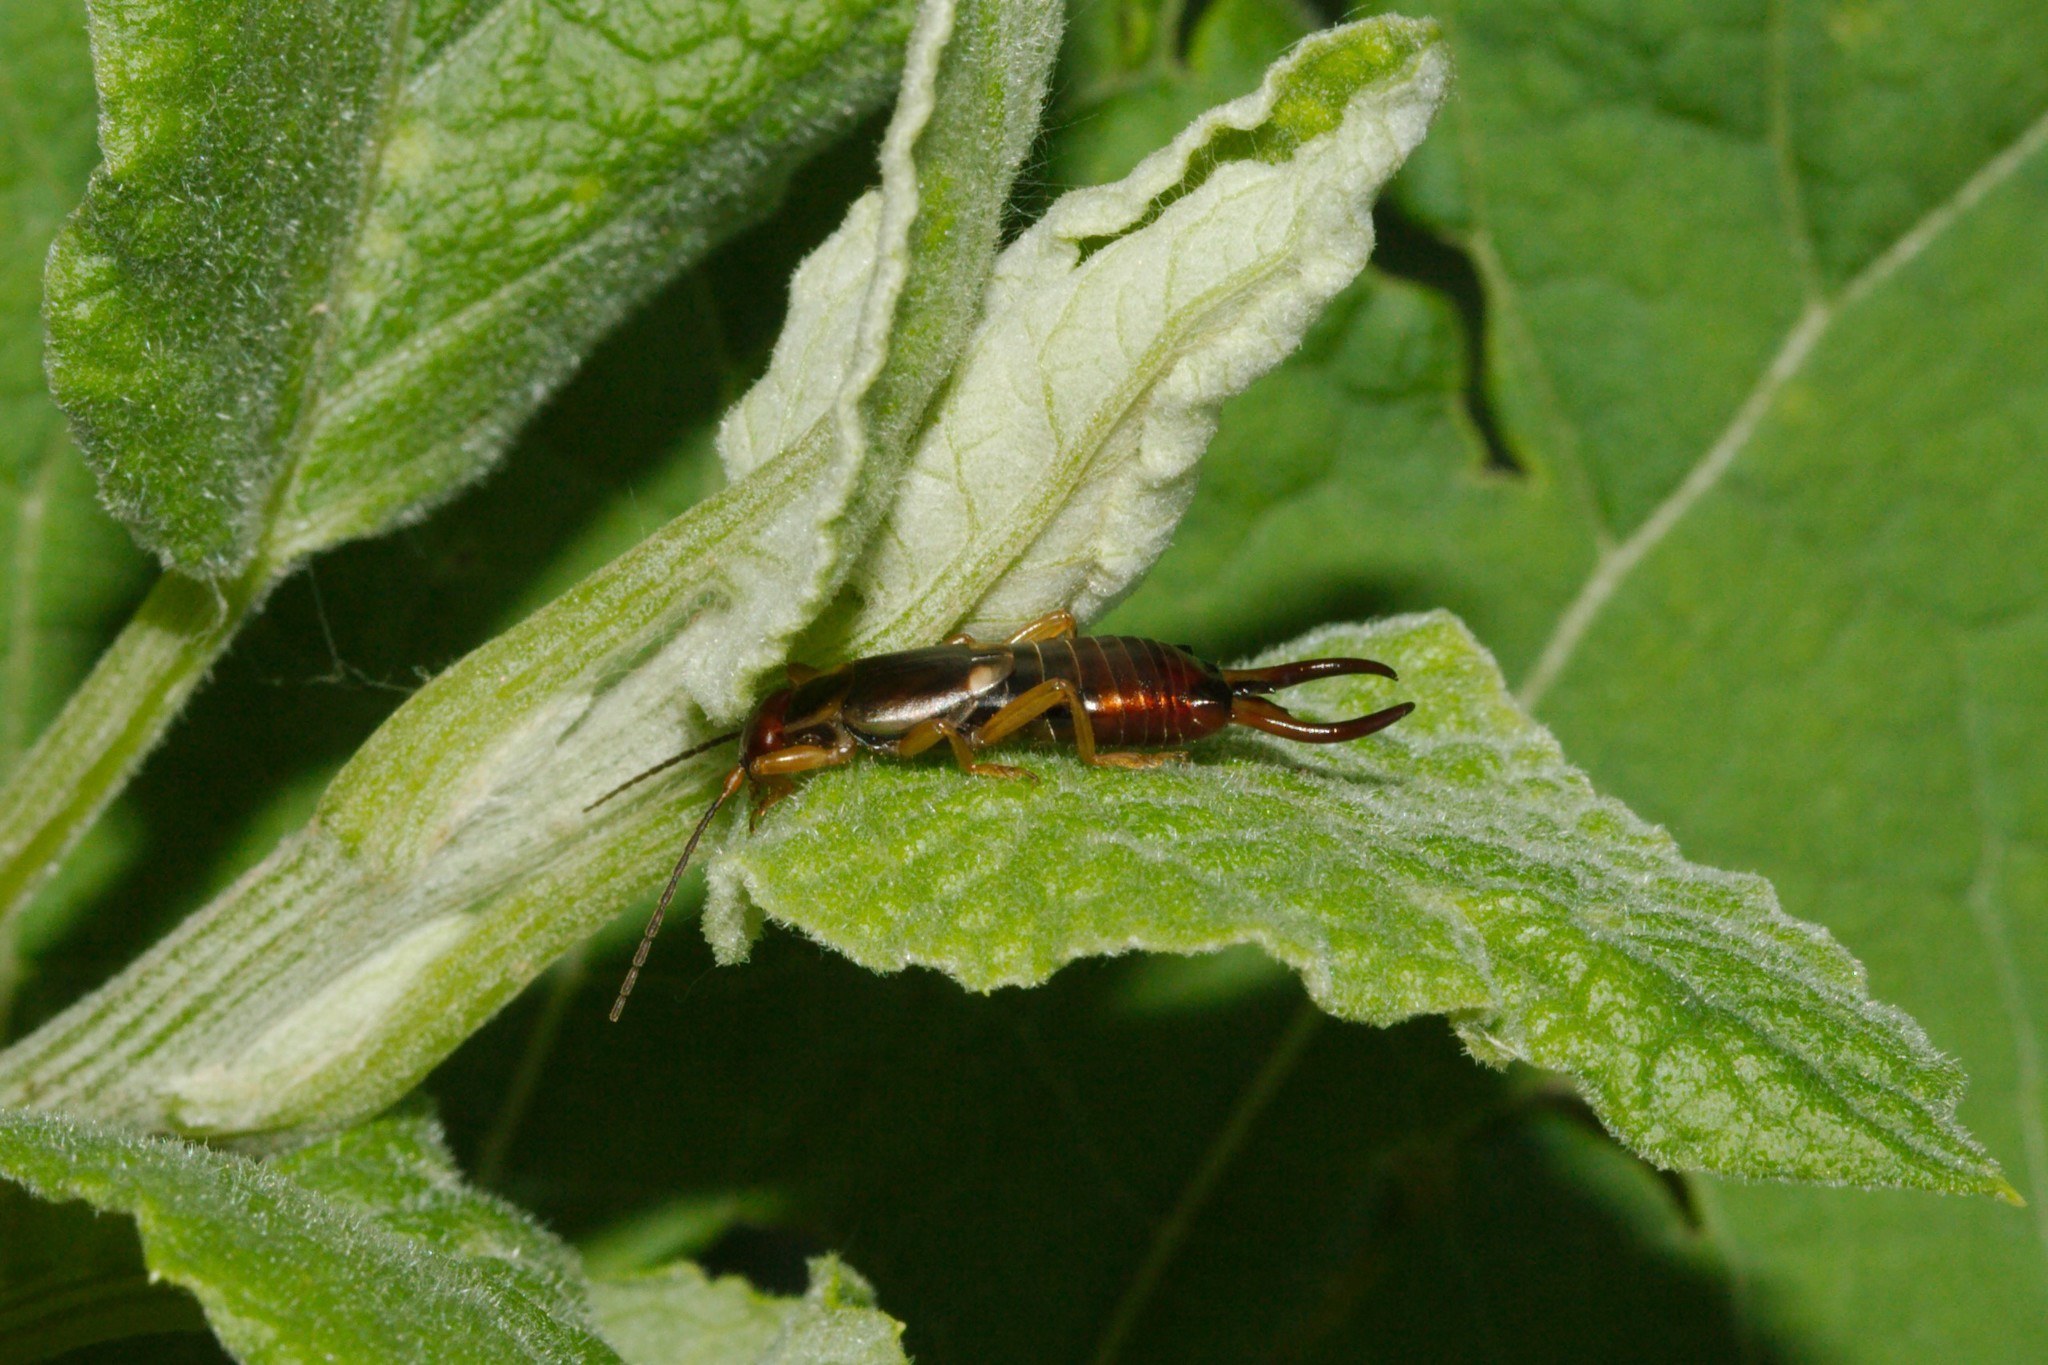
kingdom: Animalia
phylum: Arthropoda
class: Insecta
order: Dermaptera
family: Forficulidae
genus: Forficula
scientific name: Forficula
